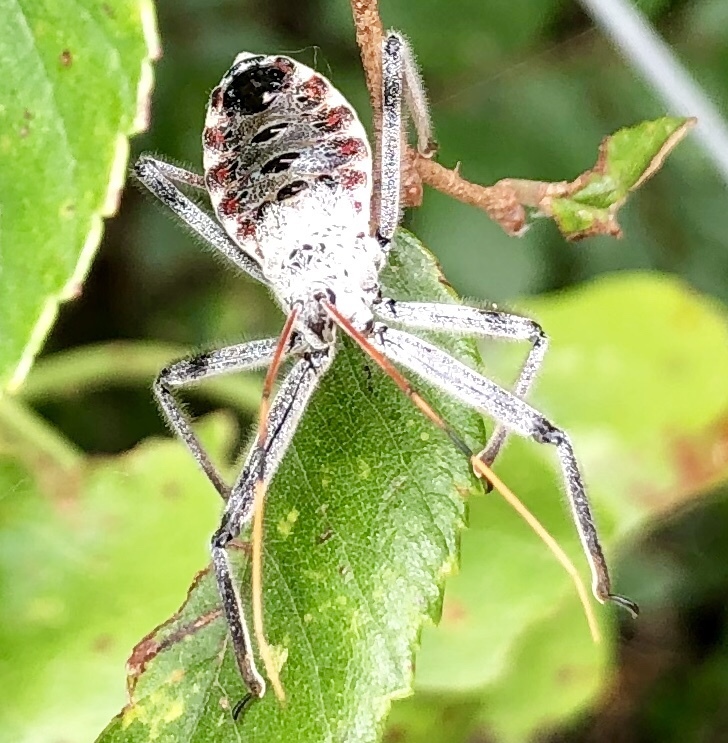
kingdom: Animalia
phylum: Arthropoda
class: Insecta
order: Hemiptera
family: Reduviidae
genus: Arilus
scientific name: Arilus cristatus
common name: North american wheel bug
